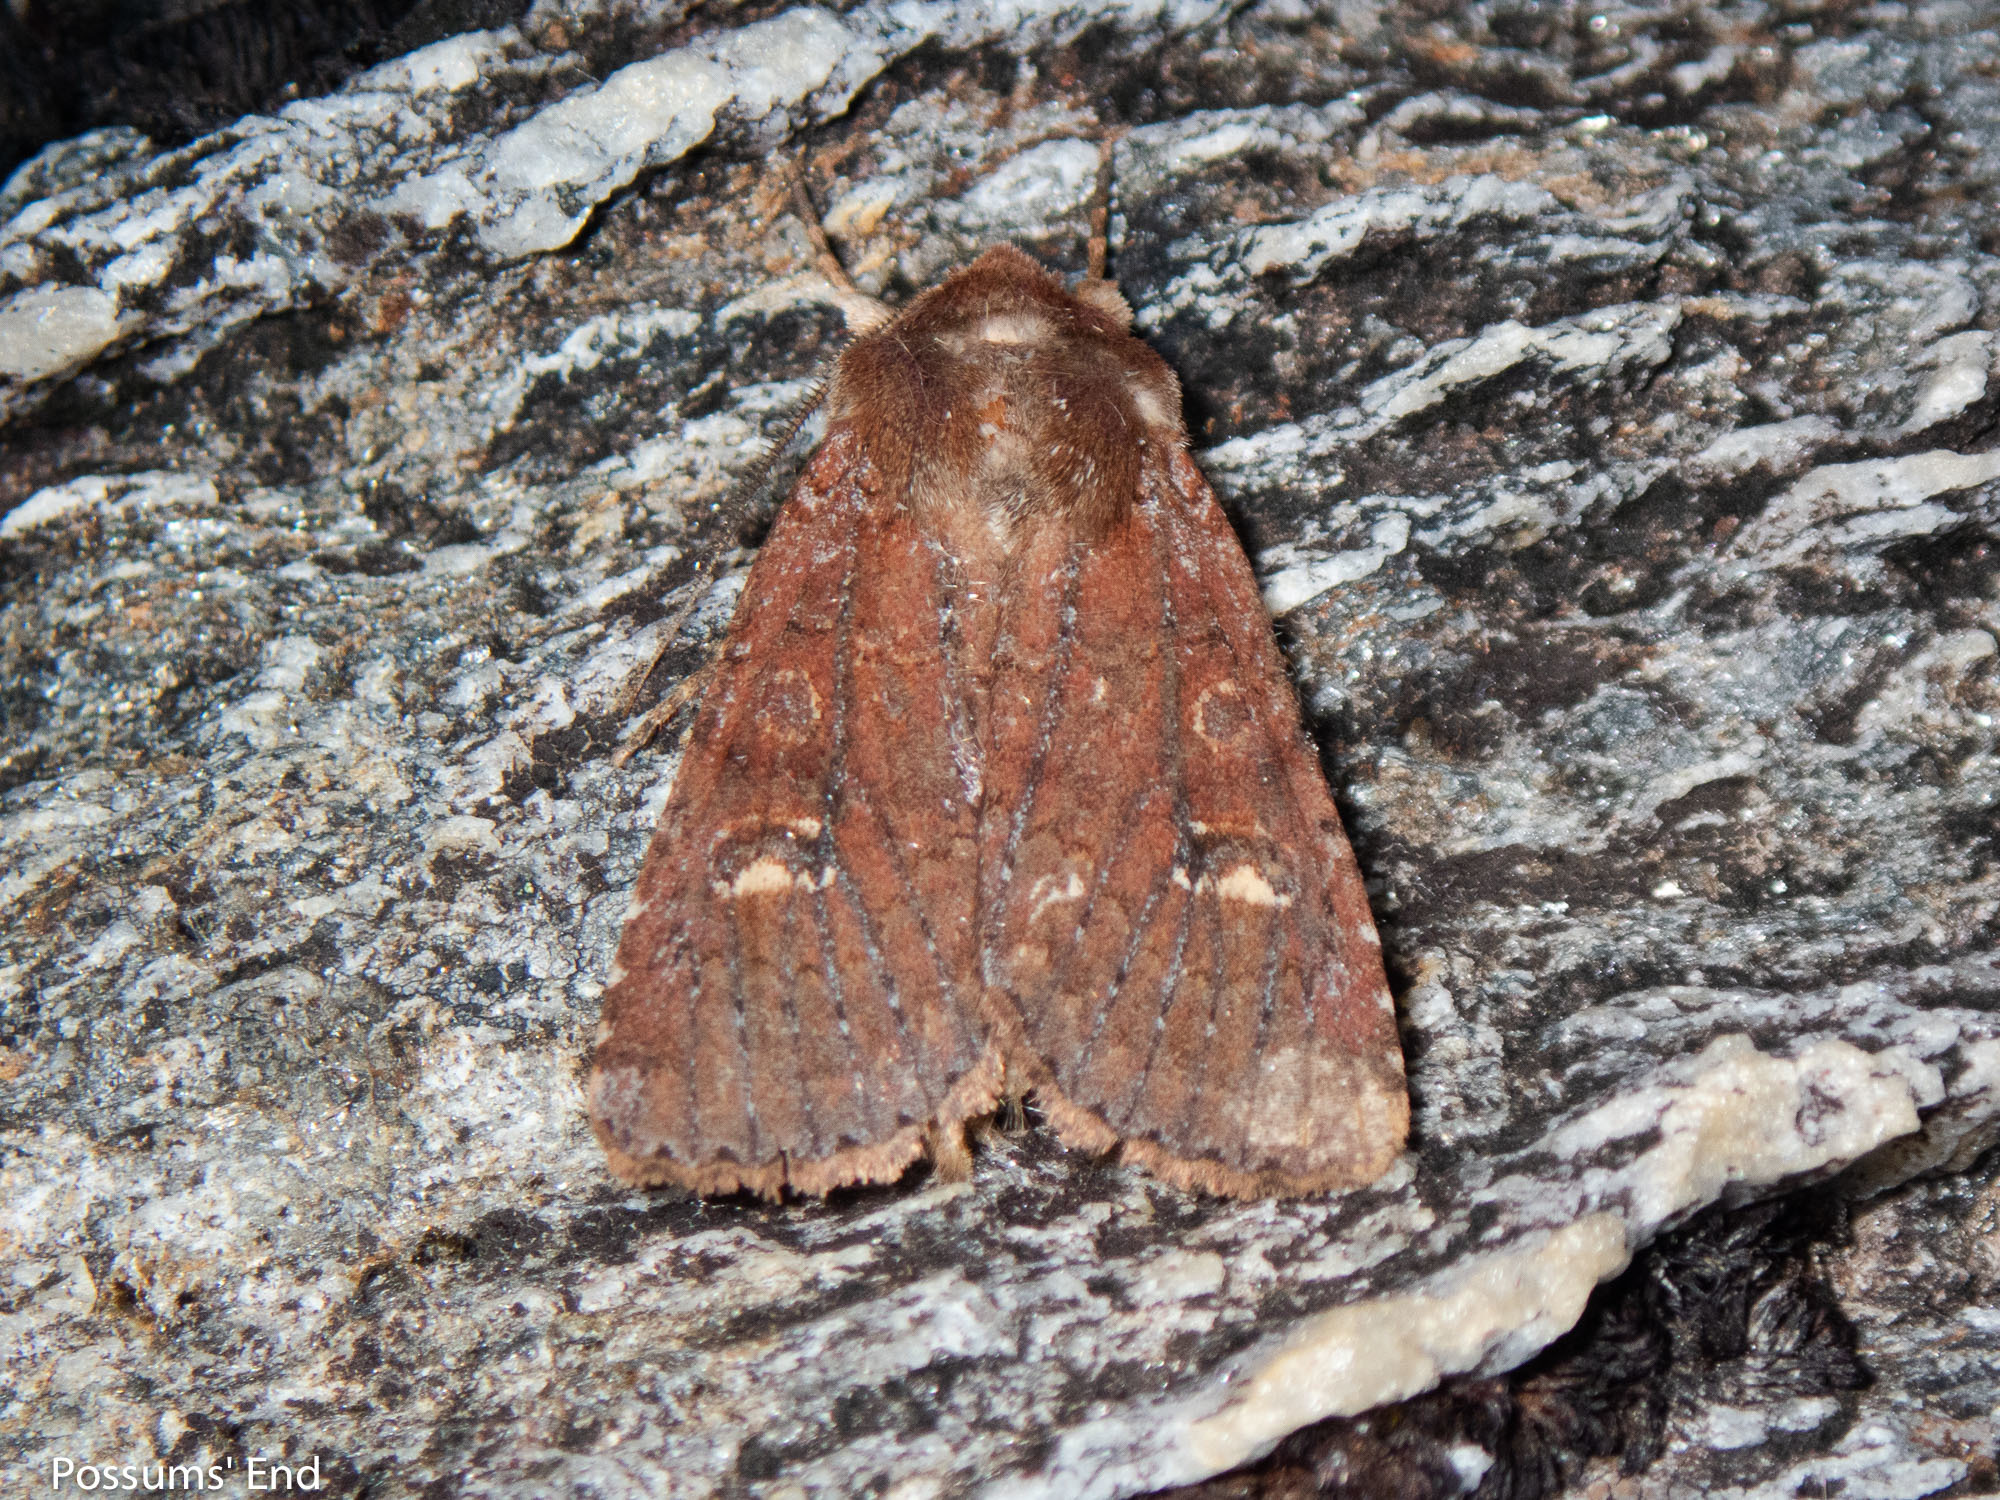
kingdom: Animalia
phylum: Arthropoda
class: Insecta
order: Lepidoptera
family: Noctuidae
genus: Ichneutica
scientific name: Ichneutica agorastis
